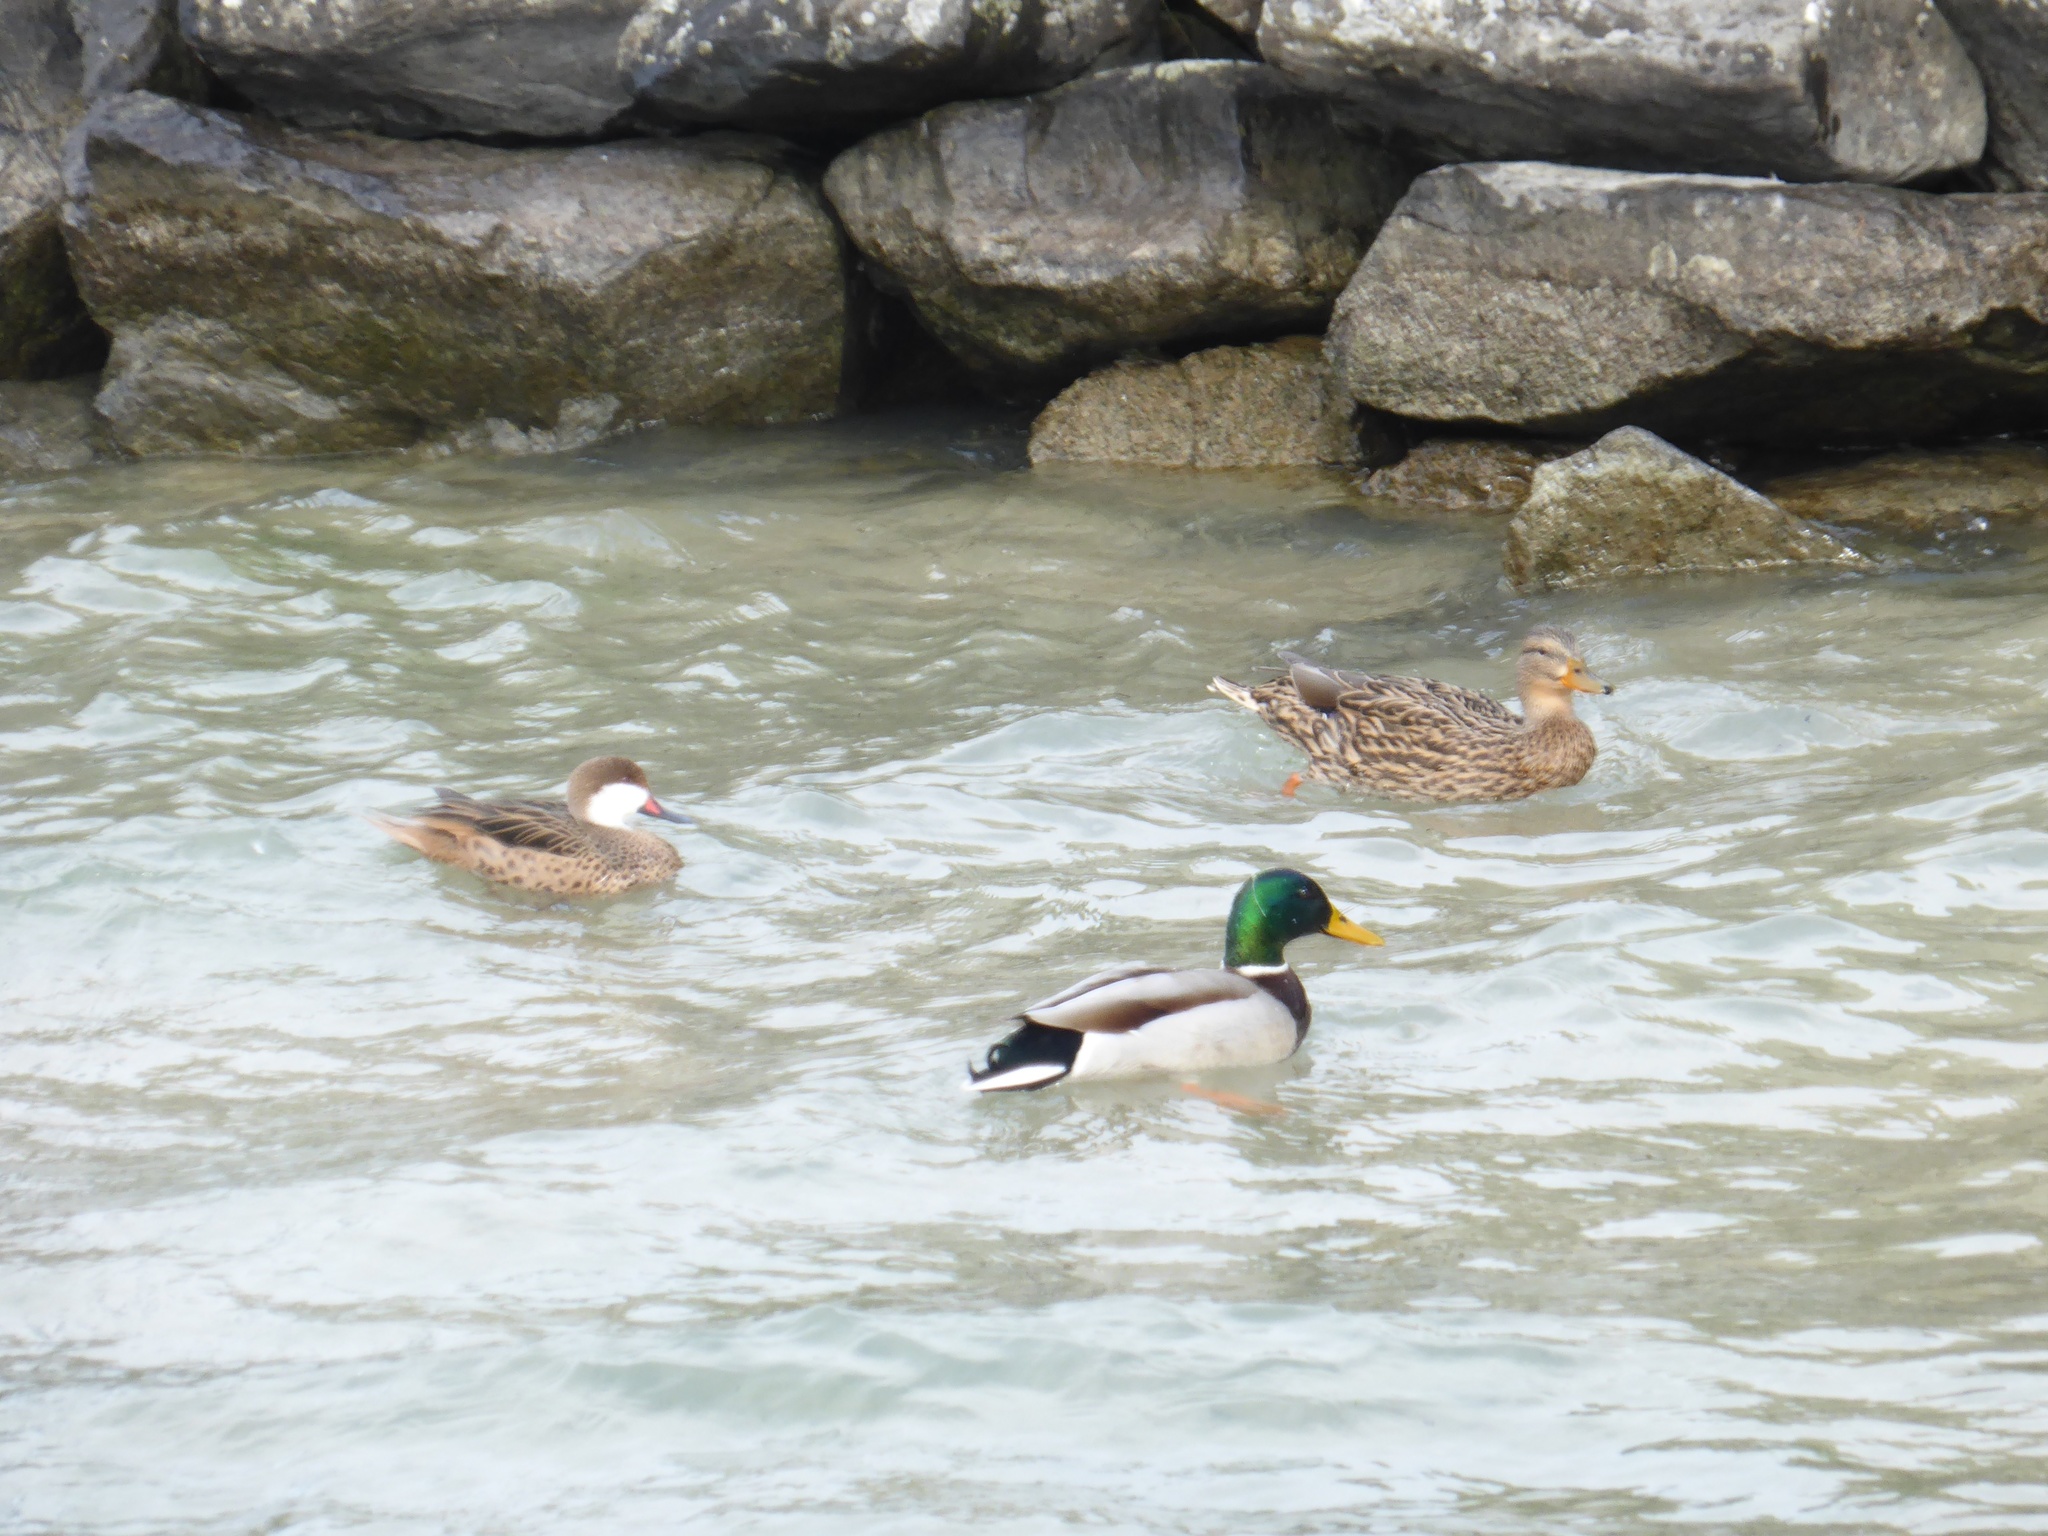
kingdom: Animalia
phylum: Chordata
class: Aves
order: Anseriformes
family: Anatidae
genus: Anas
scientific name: Anas platyrhynchos
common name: Mallard
